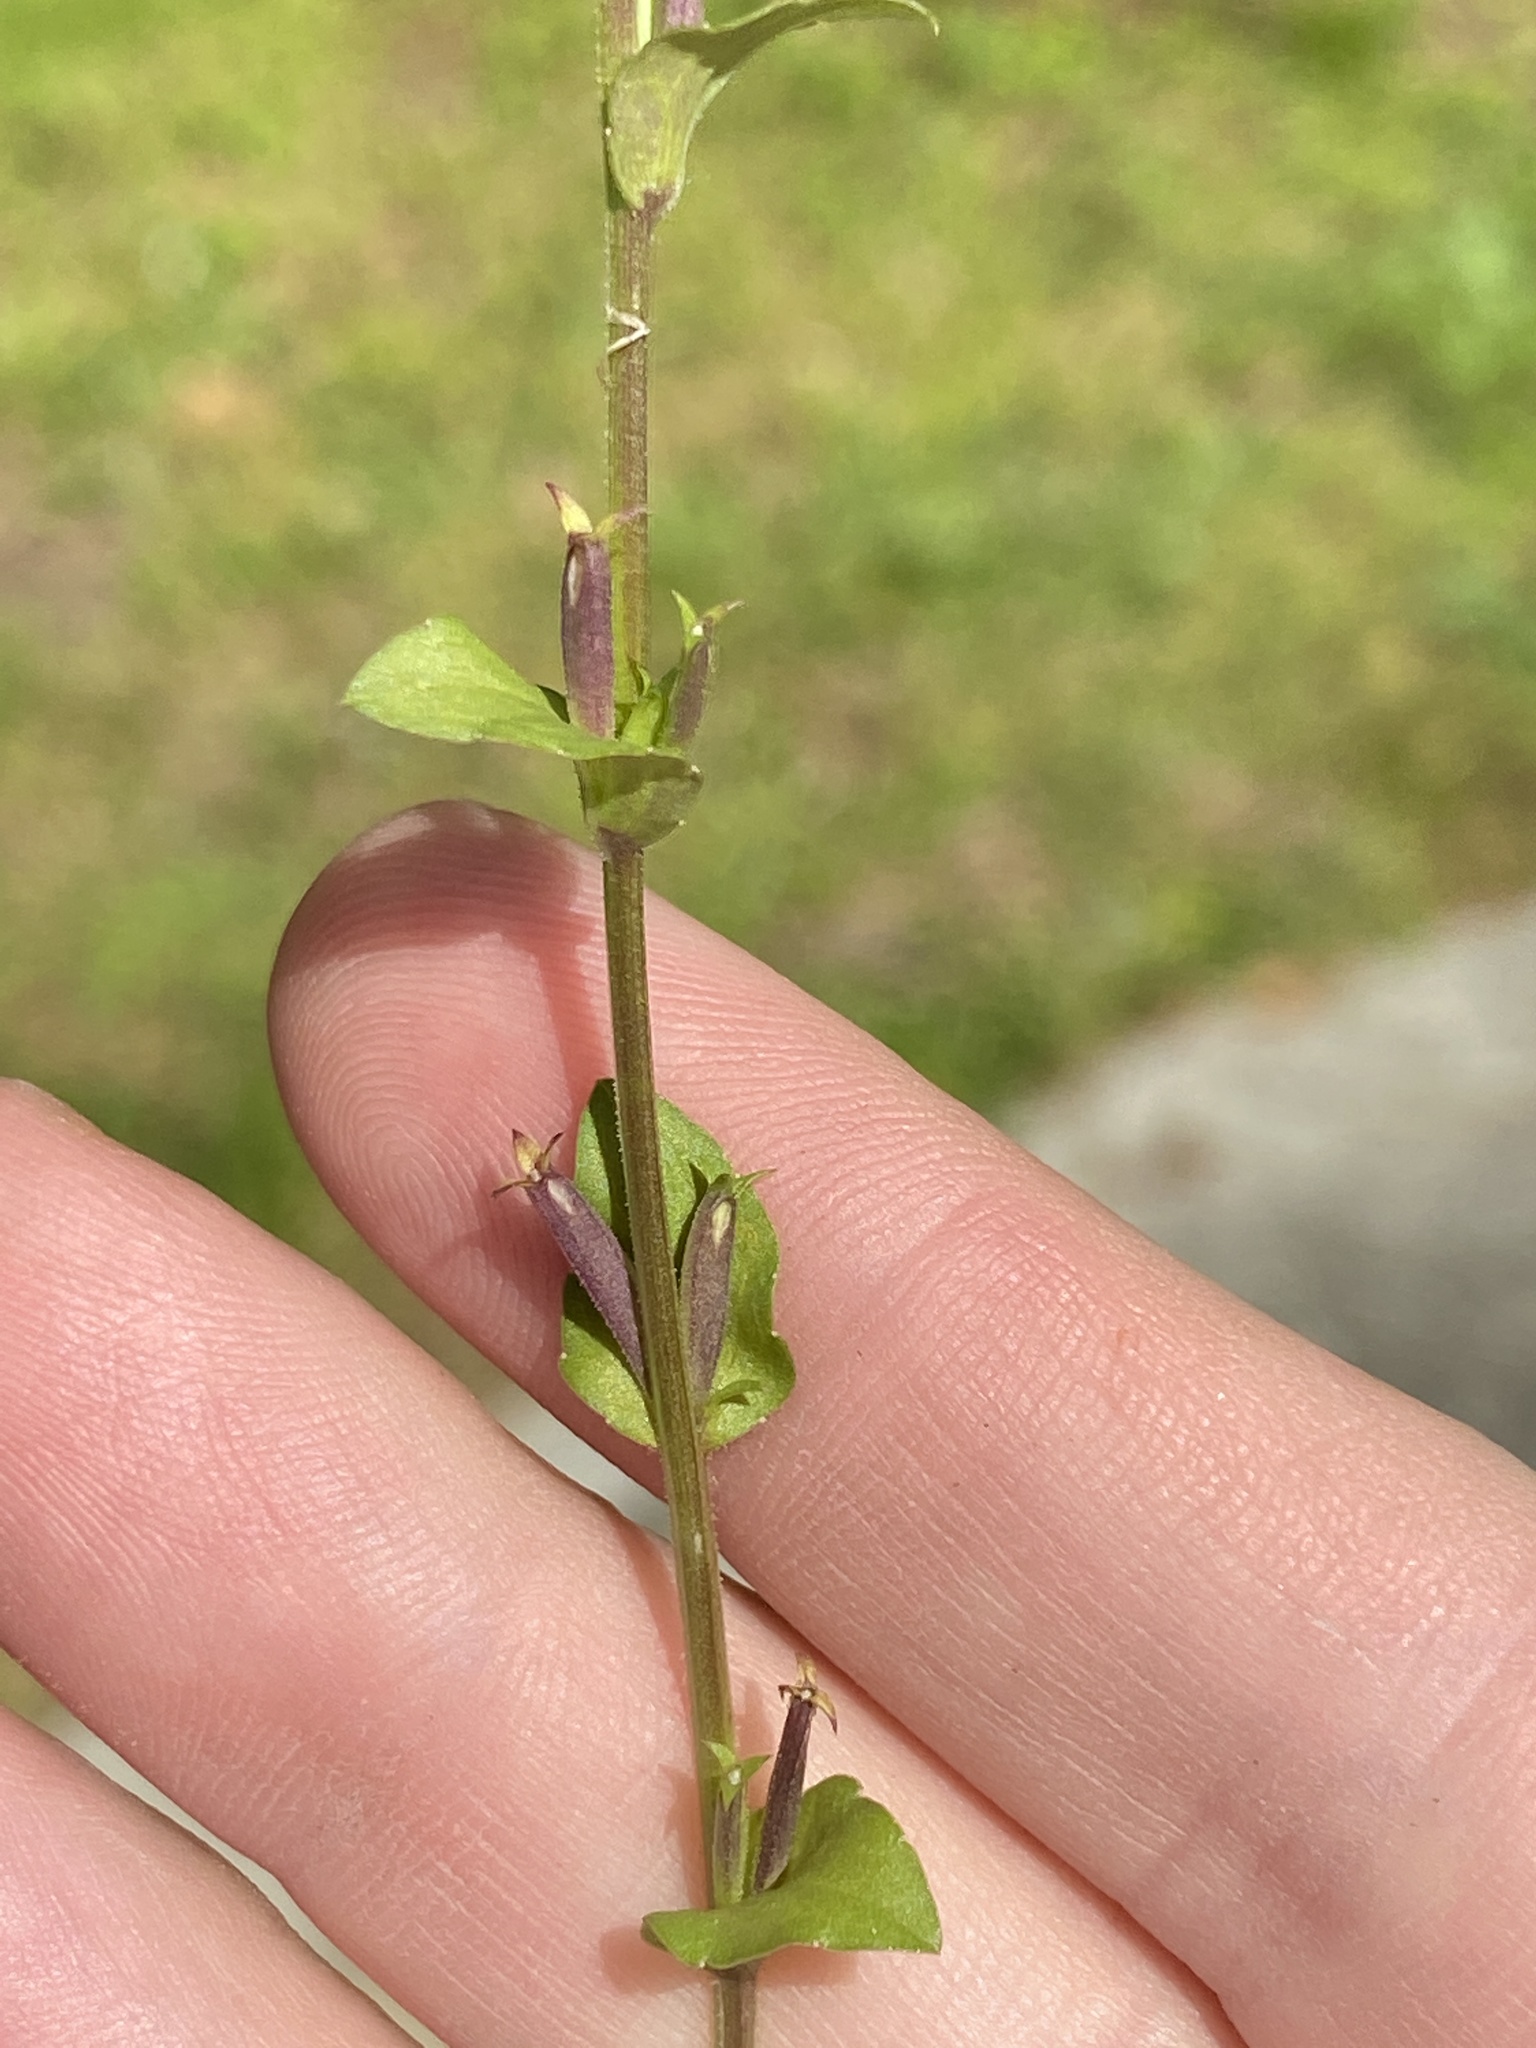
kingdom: Plantae
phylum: Tracheophyta
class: Magnoliopsida
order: Asterales
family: Campanulaceae
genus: Triodanis
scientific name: Triodanis biflora
